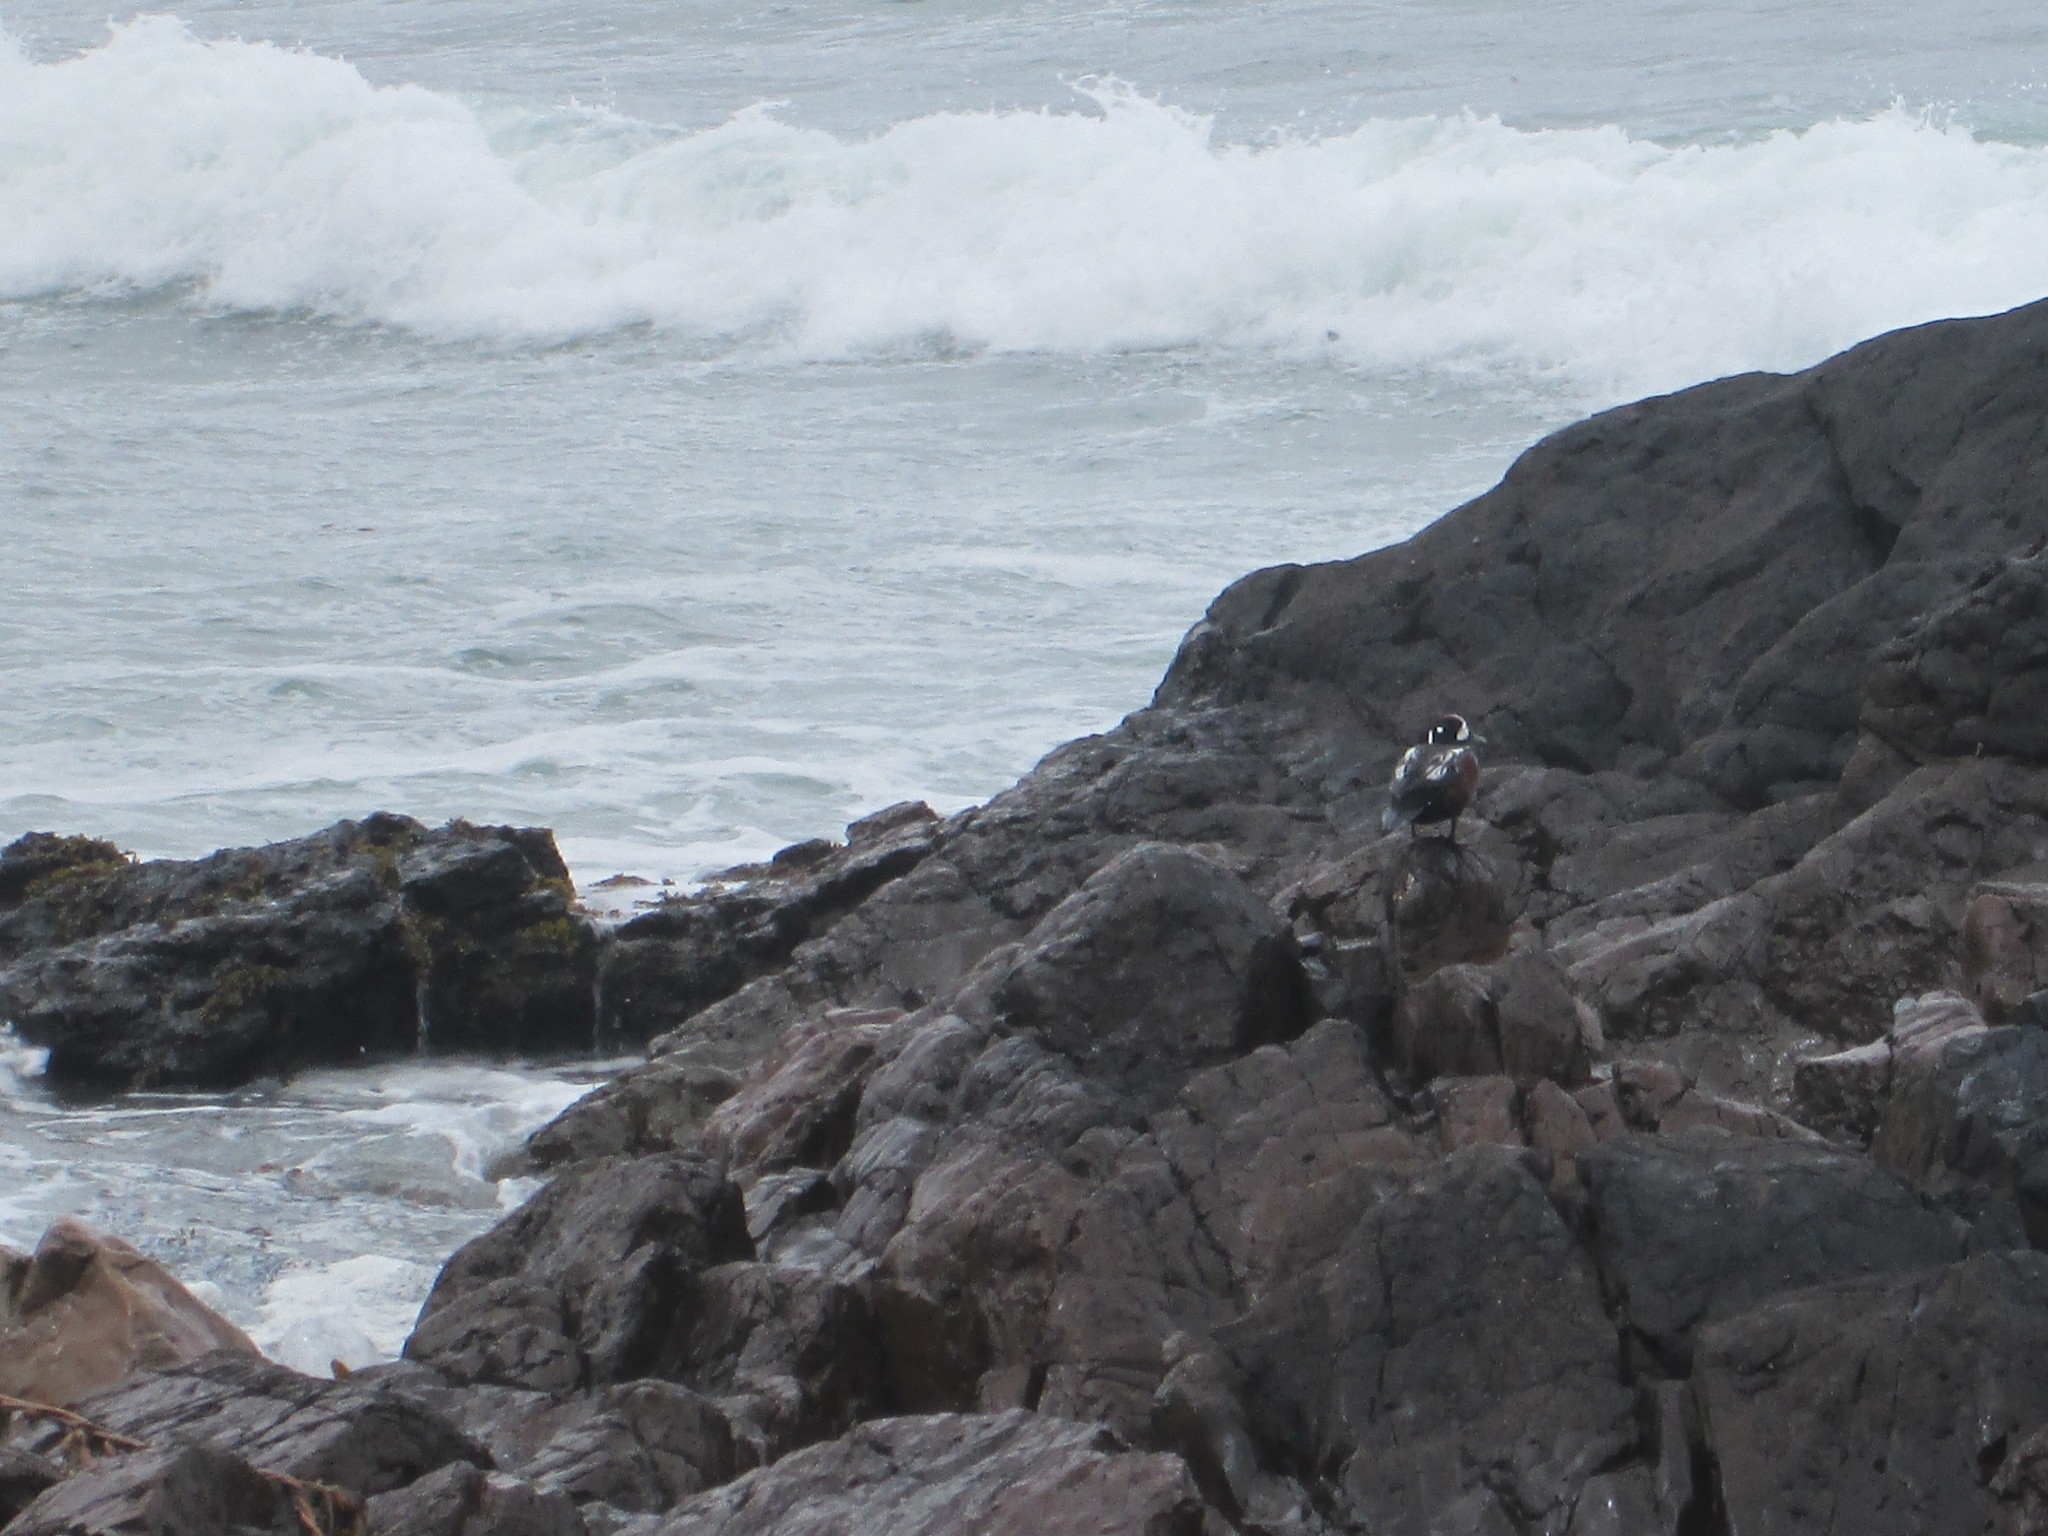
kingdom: Animalia
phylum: Chordata
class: Aves
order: Anseriformes
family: Anatidae
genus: Histrionicus
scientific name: Histrionicus histrionicus
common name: Harlequin duck
